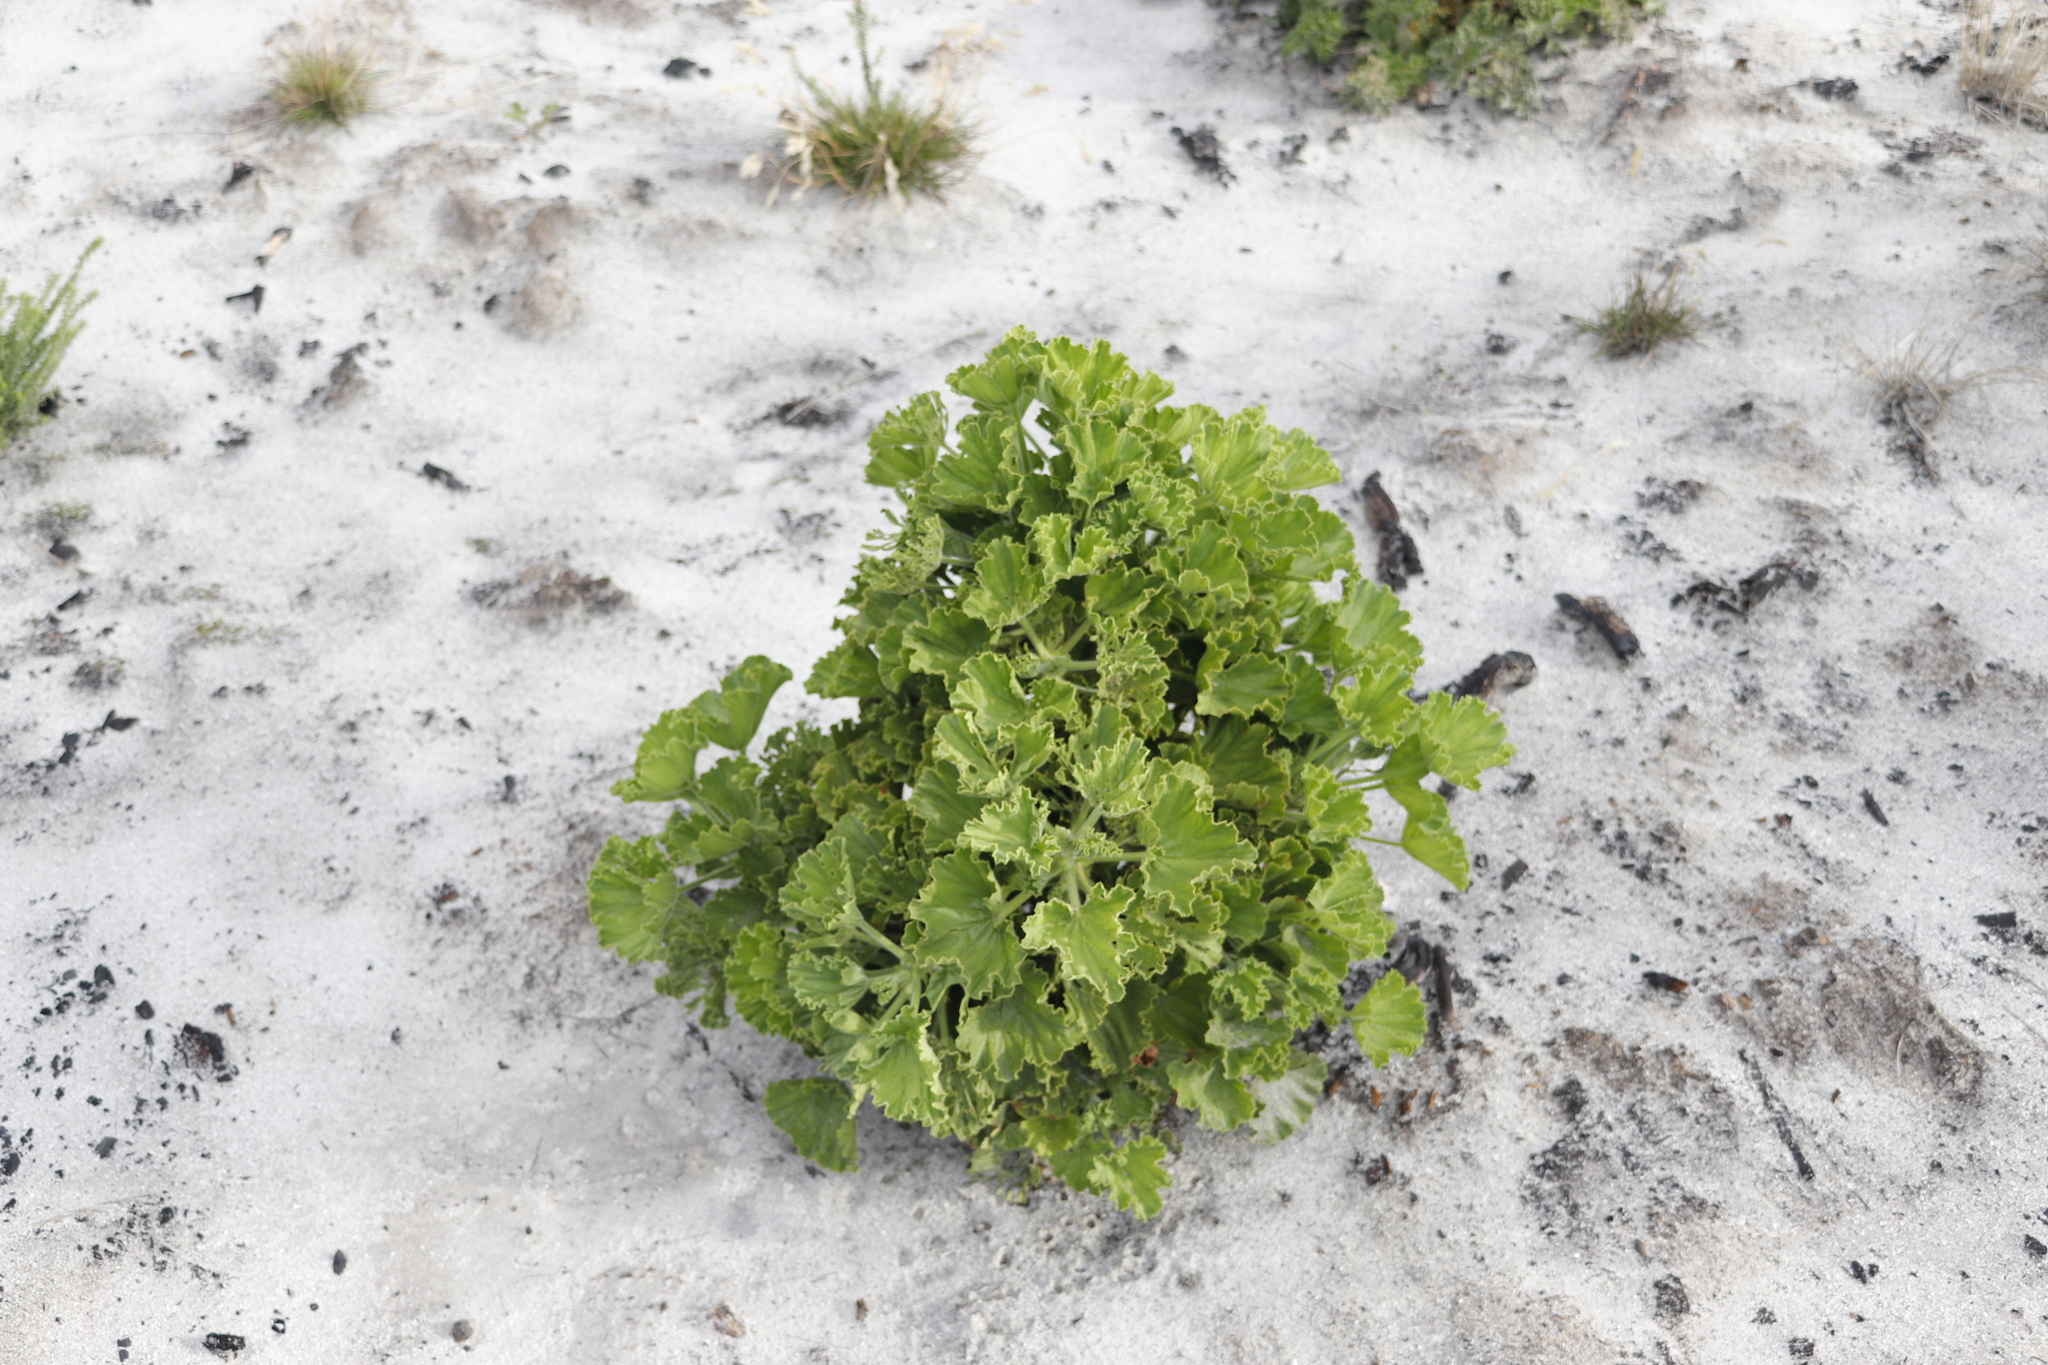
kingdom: Plantae
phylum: Tracheophyta
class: Magnoliopsida
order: Geraniales
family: Geraniaceae
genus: Pelargonium
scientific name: Pelargonium cucullatum
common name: Tree pelargonium
